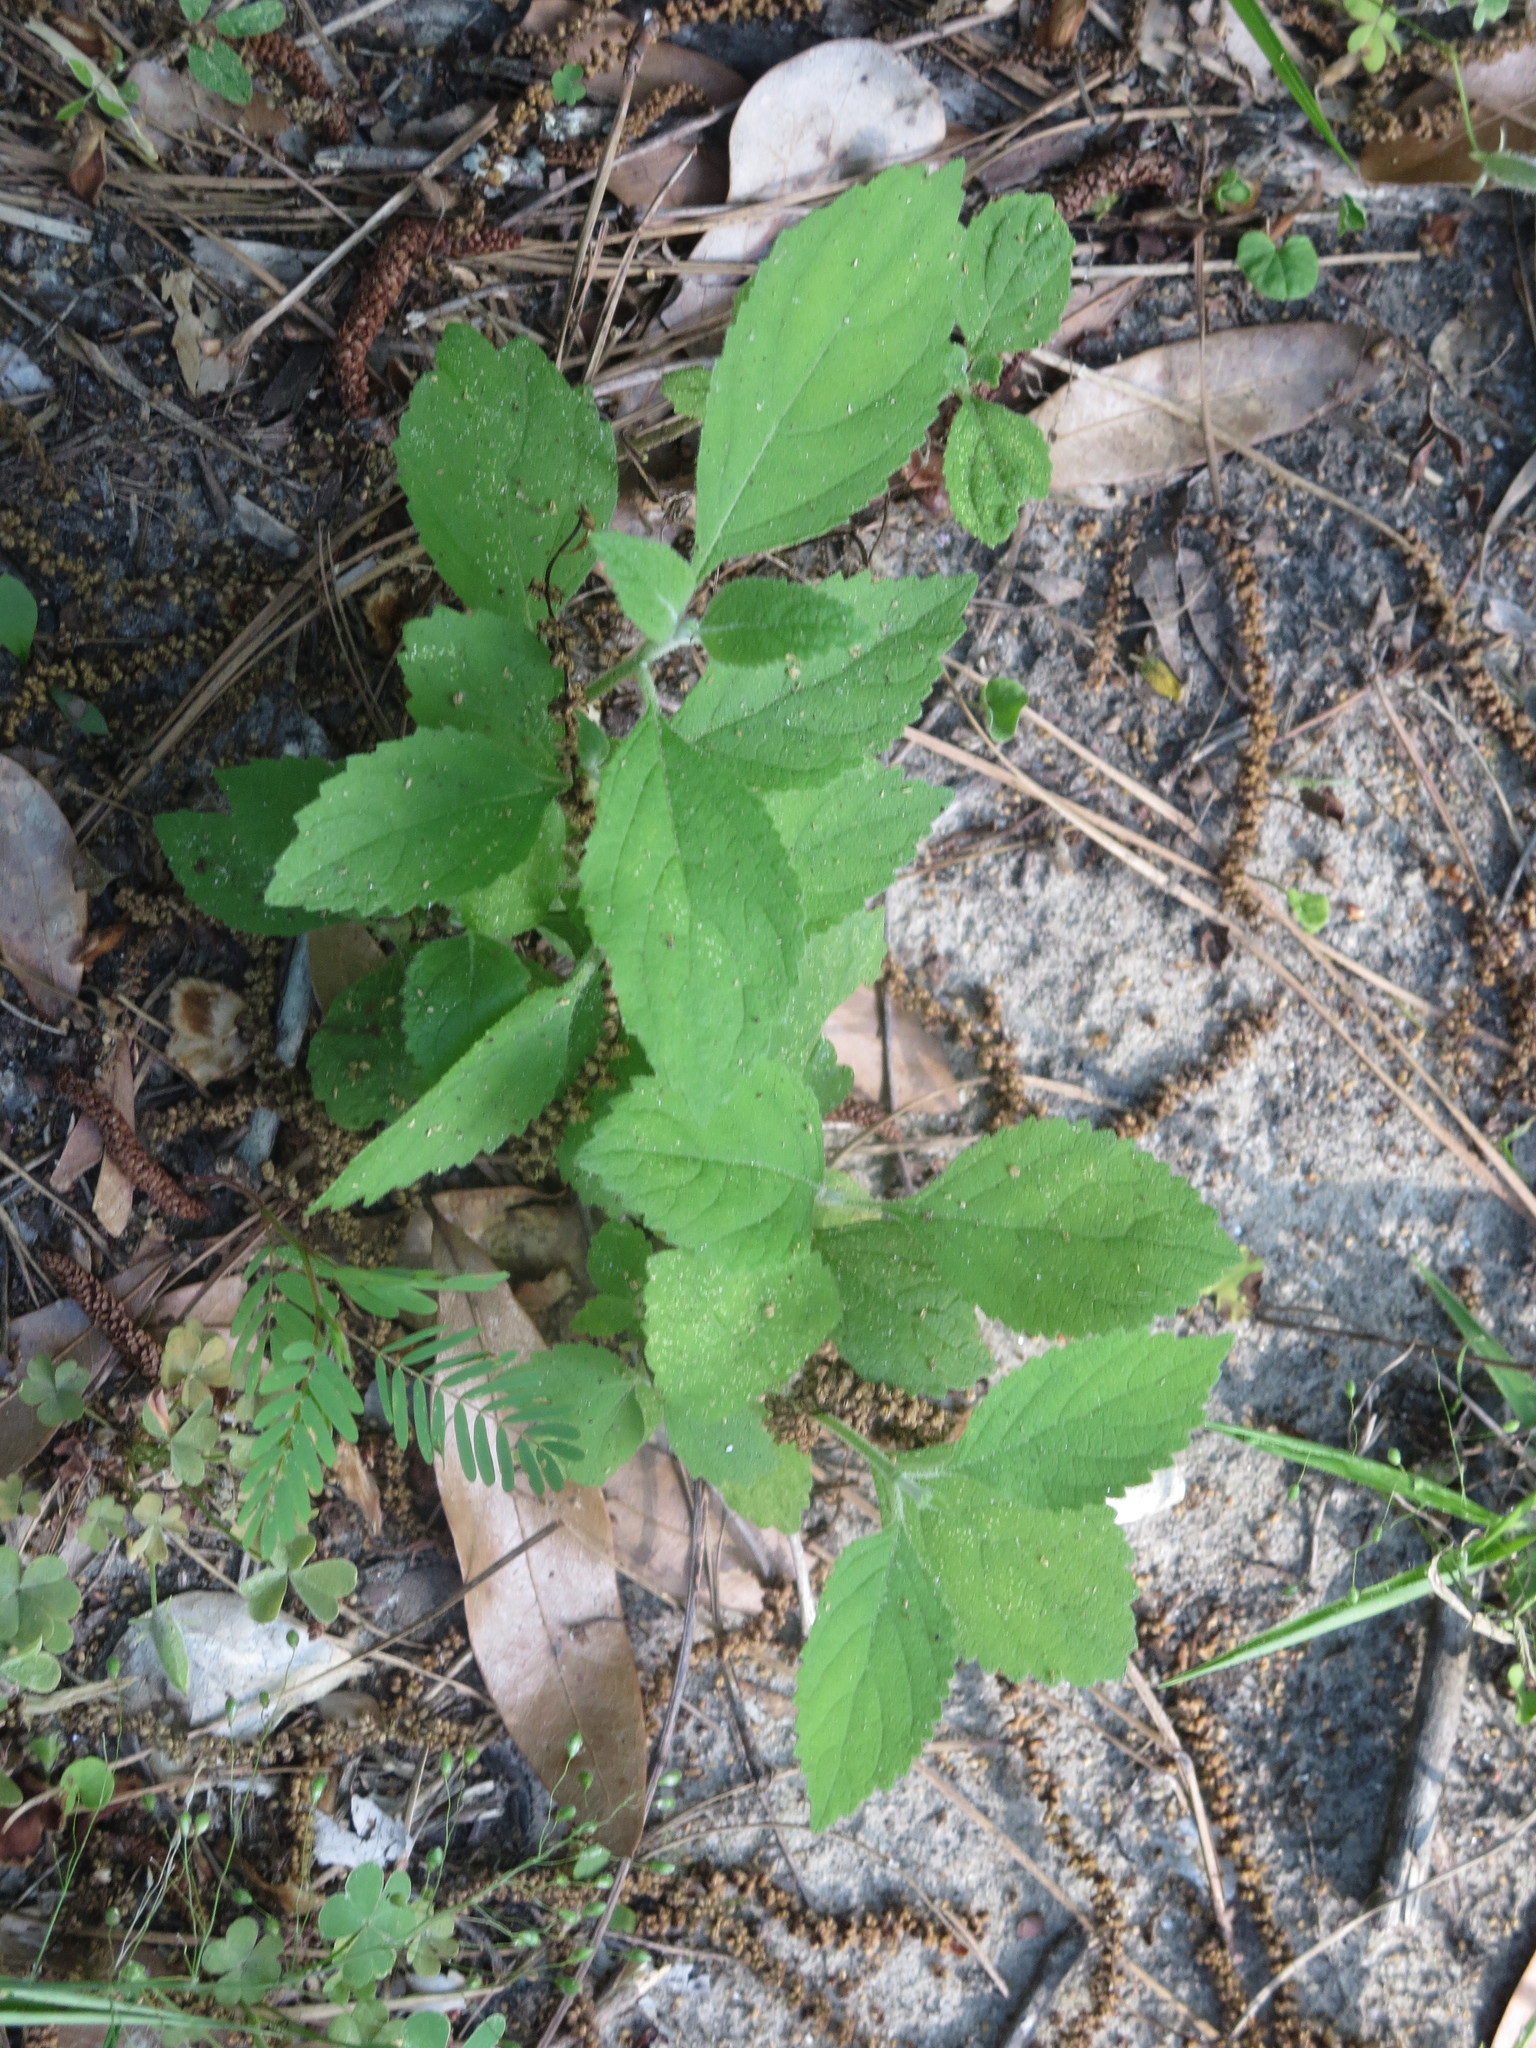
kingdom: Plantae
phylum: Tracheophyta
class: Magnoliopsida
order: Lamiales
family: Lamiaceae
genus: Callicarpa
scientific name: Callicarpa americana
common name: American beautyberry
